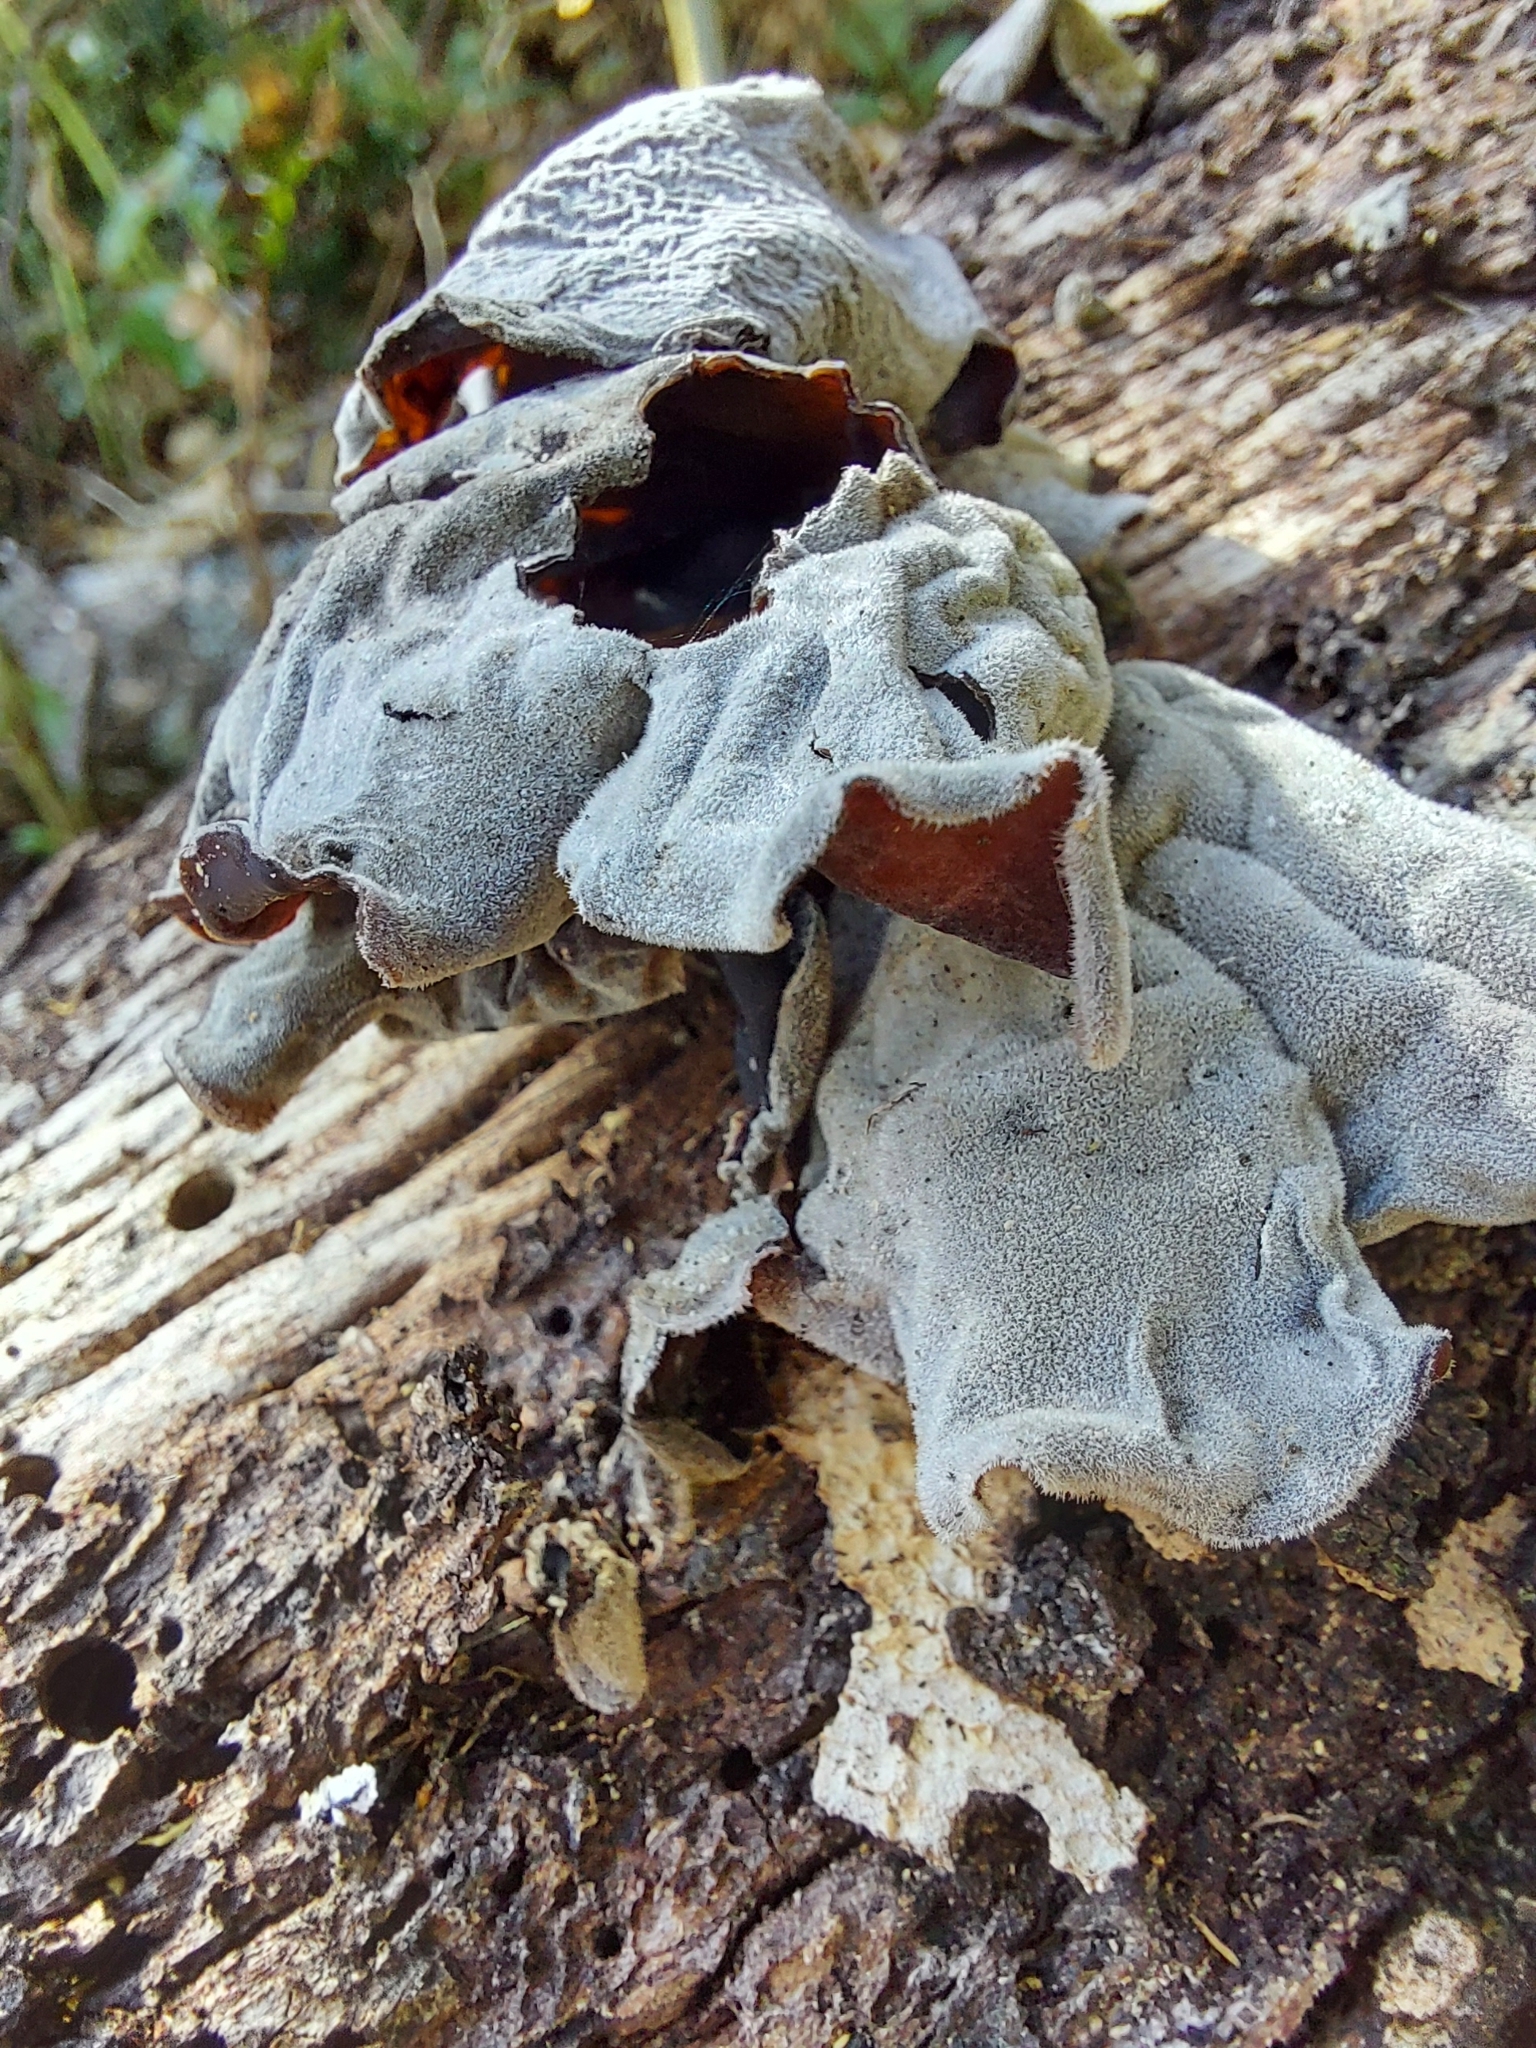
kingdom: Fungi
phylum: Basidiomycota
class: Agaricomycetes
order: Auriculariales
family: Auriculariaceae
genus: Auricularia
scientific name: Auricularia cornea
